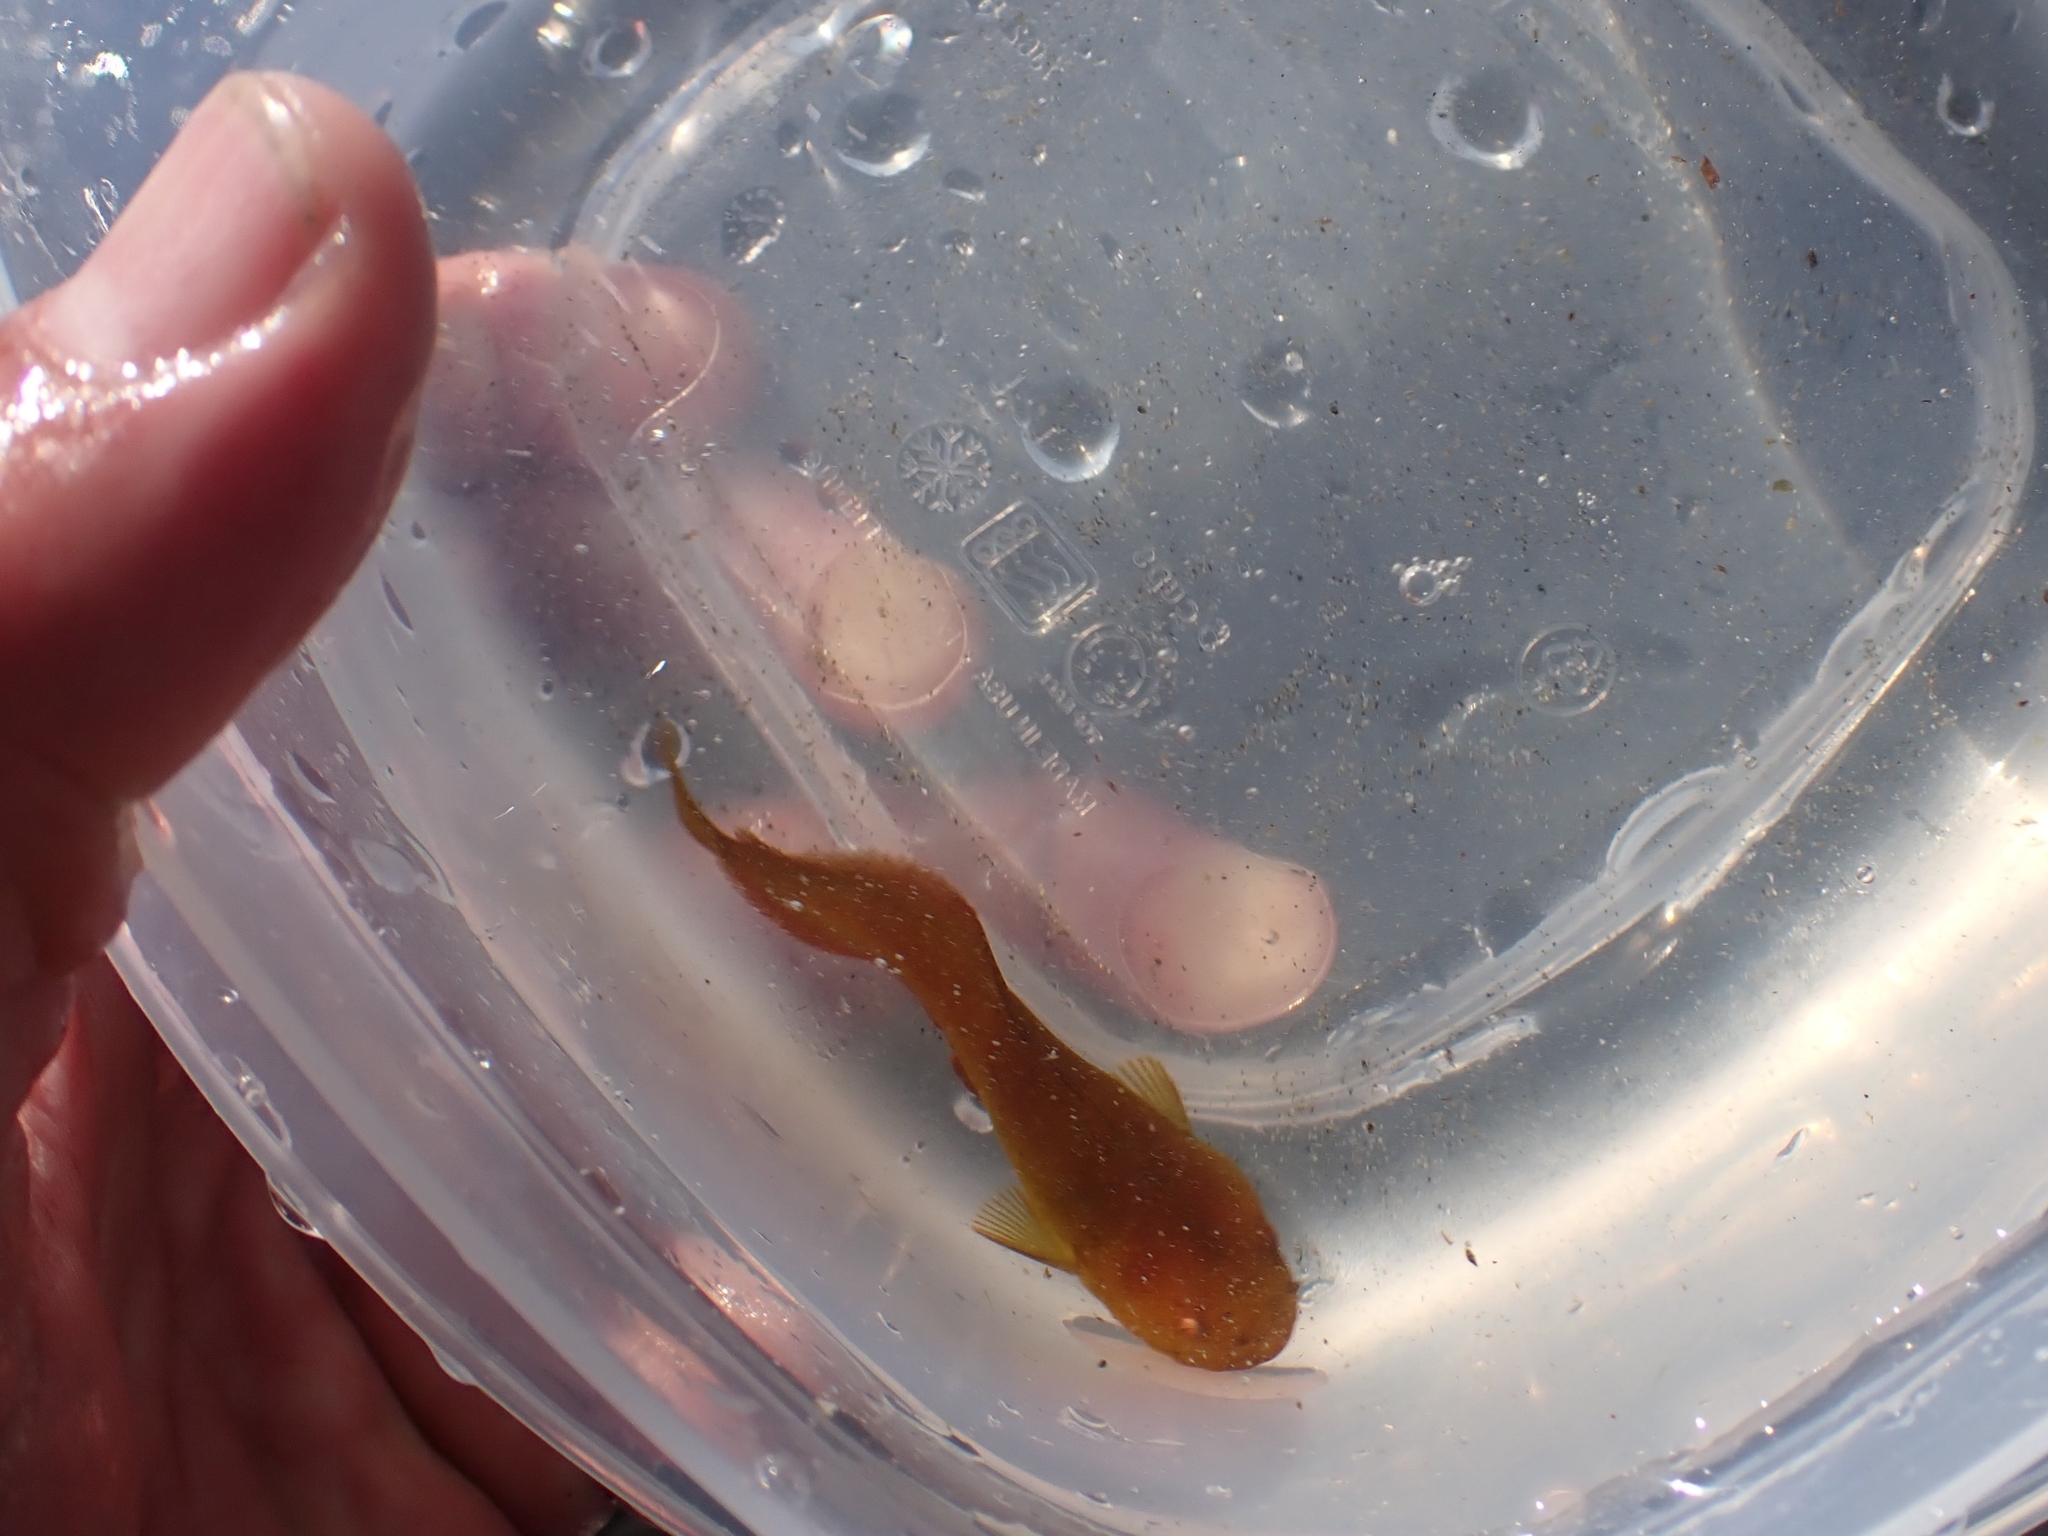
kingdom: Animalia
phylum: Chordata
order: Scorpaeniformes
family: Liparidae
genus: Liparis
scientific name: Liparis florae
